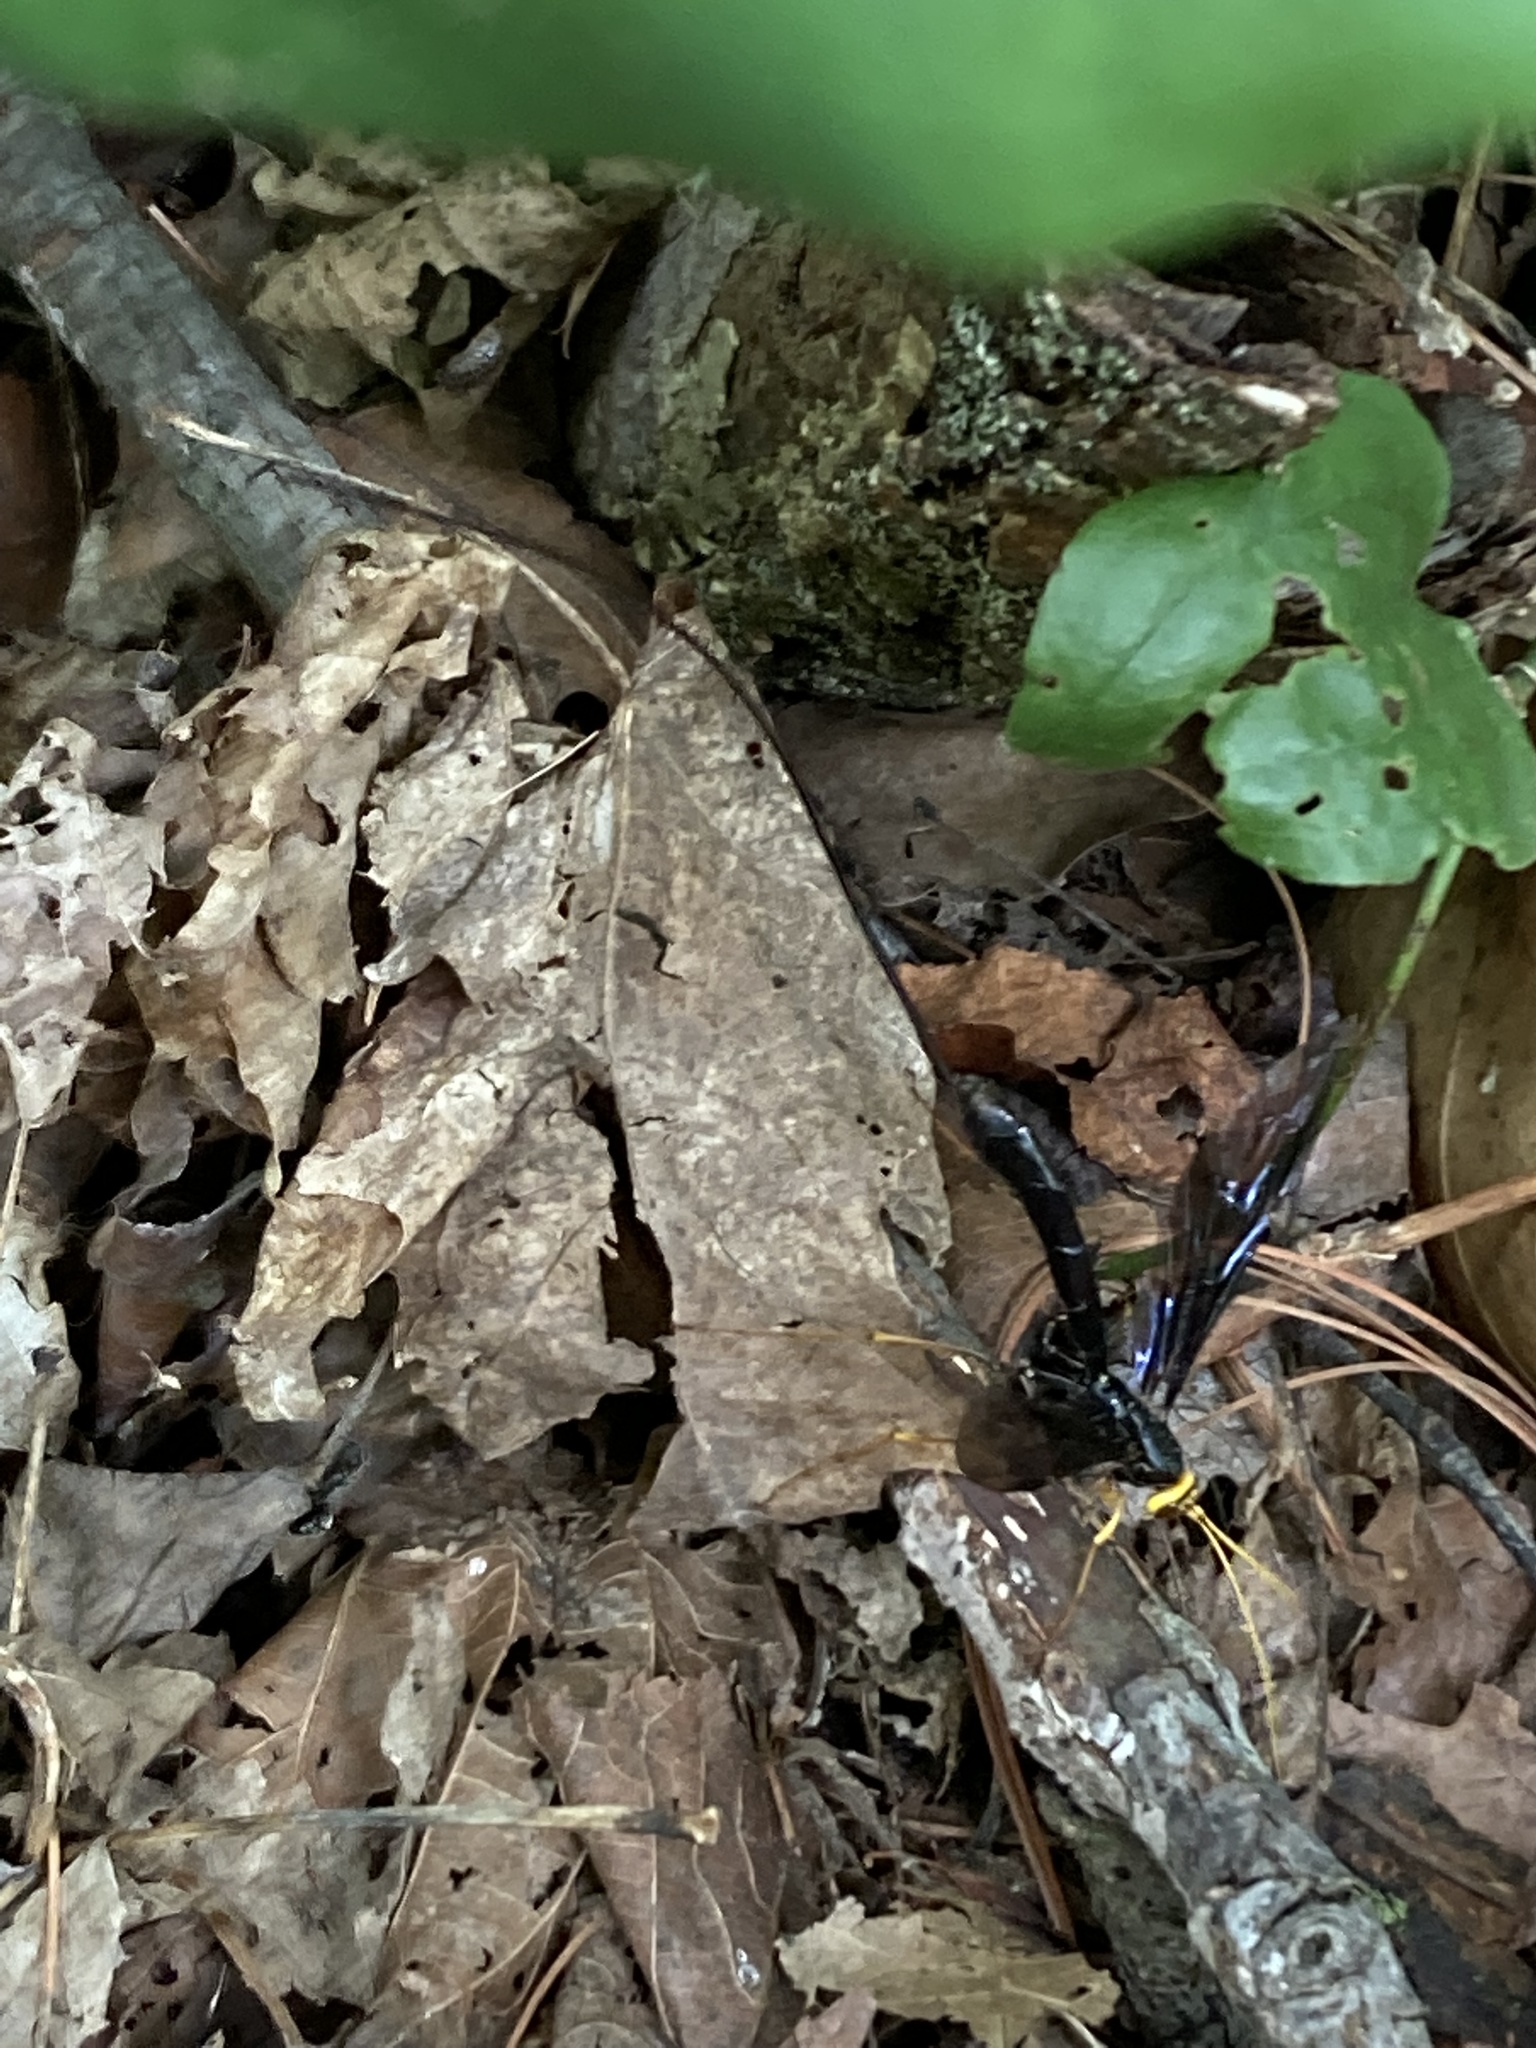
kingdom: Animalia
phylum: Arthropoda
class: Insecta
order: Hymenoptera
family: Ichneumonidae
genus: Megarhyssa
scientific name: Megarhyssa atrata
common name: Black giant ichneumonid wasp
